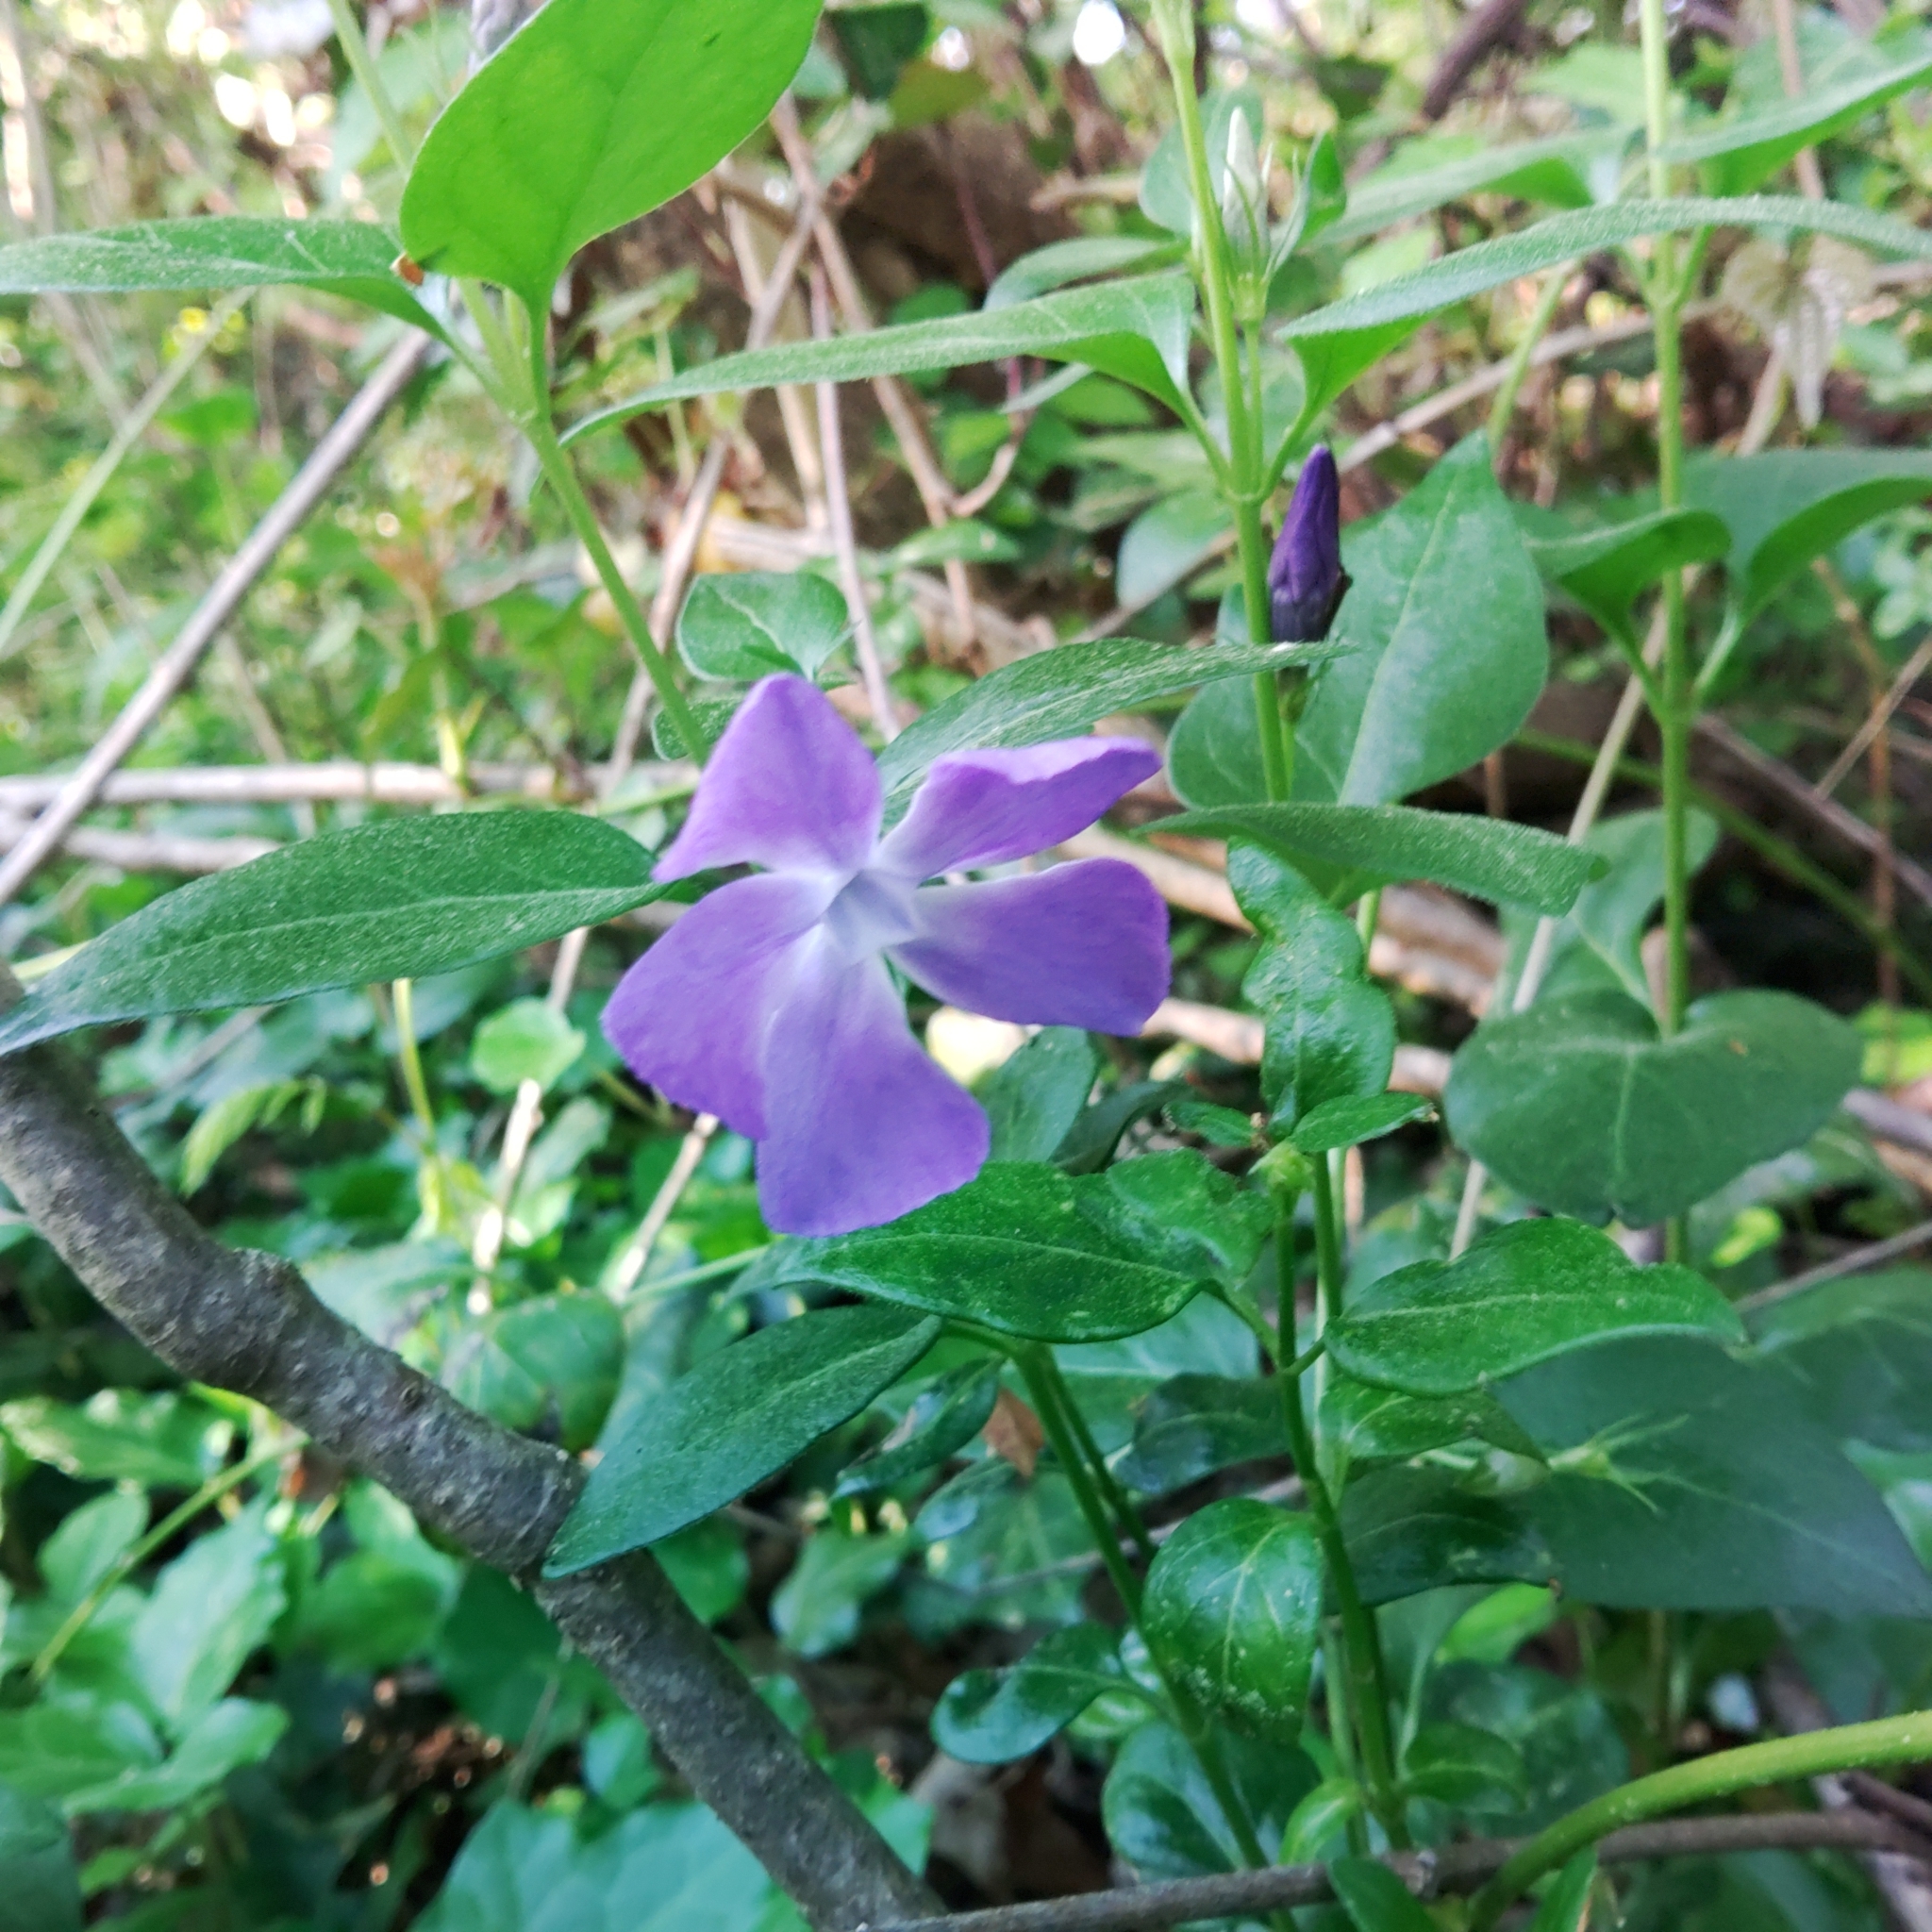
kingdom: Plantae
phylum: Tracheophyta
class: Magnoliopsida
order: Gentianales
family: Apocynaceae
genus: Vinca
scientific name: Vinca major
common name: Greater periwinkle
